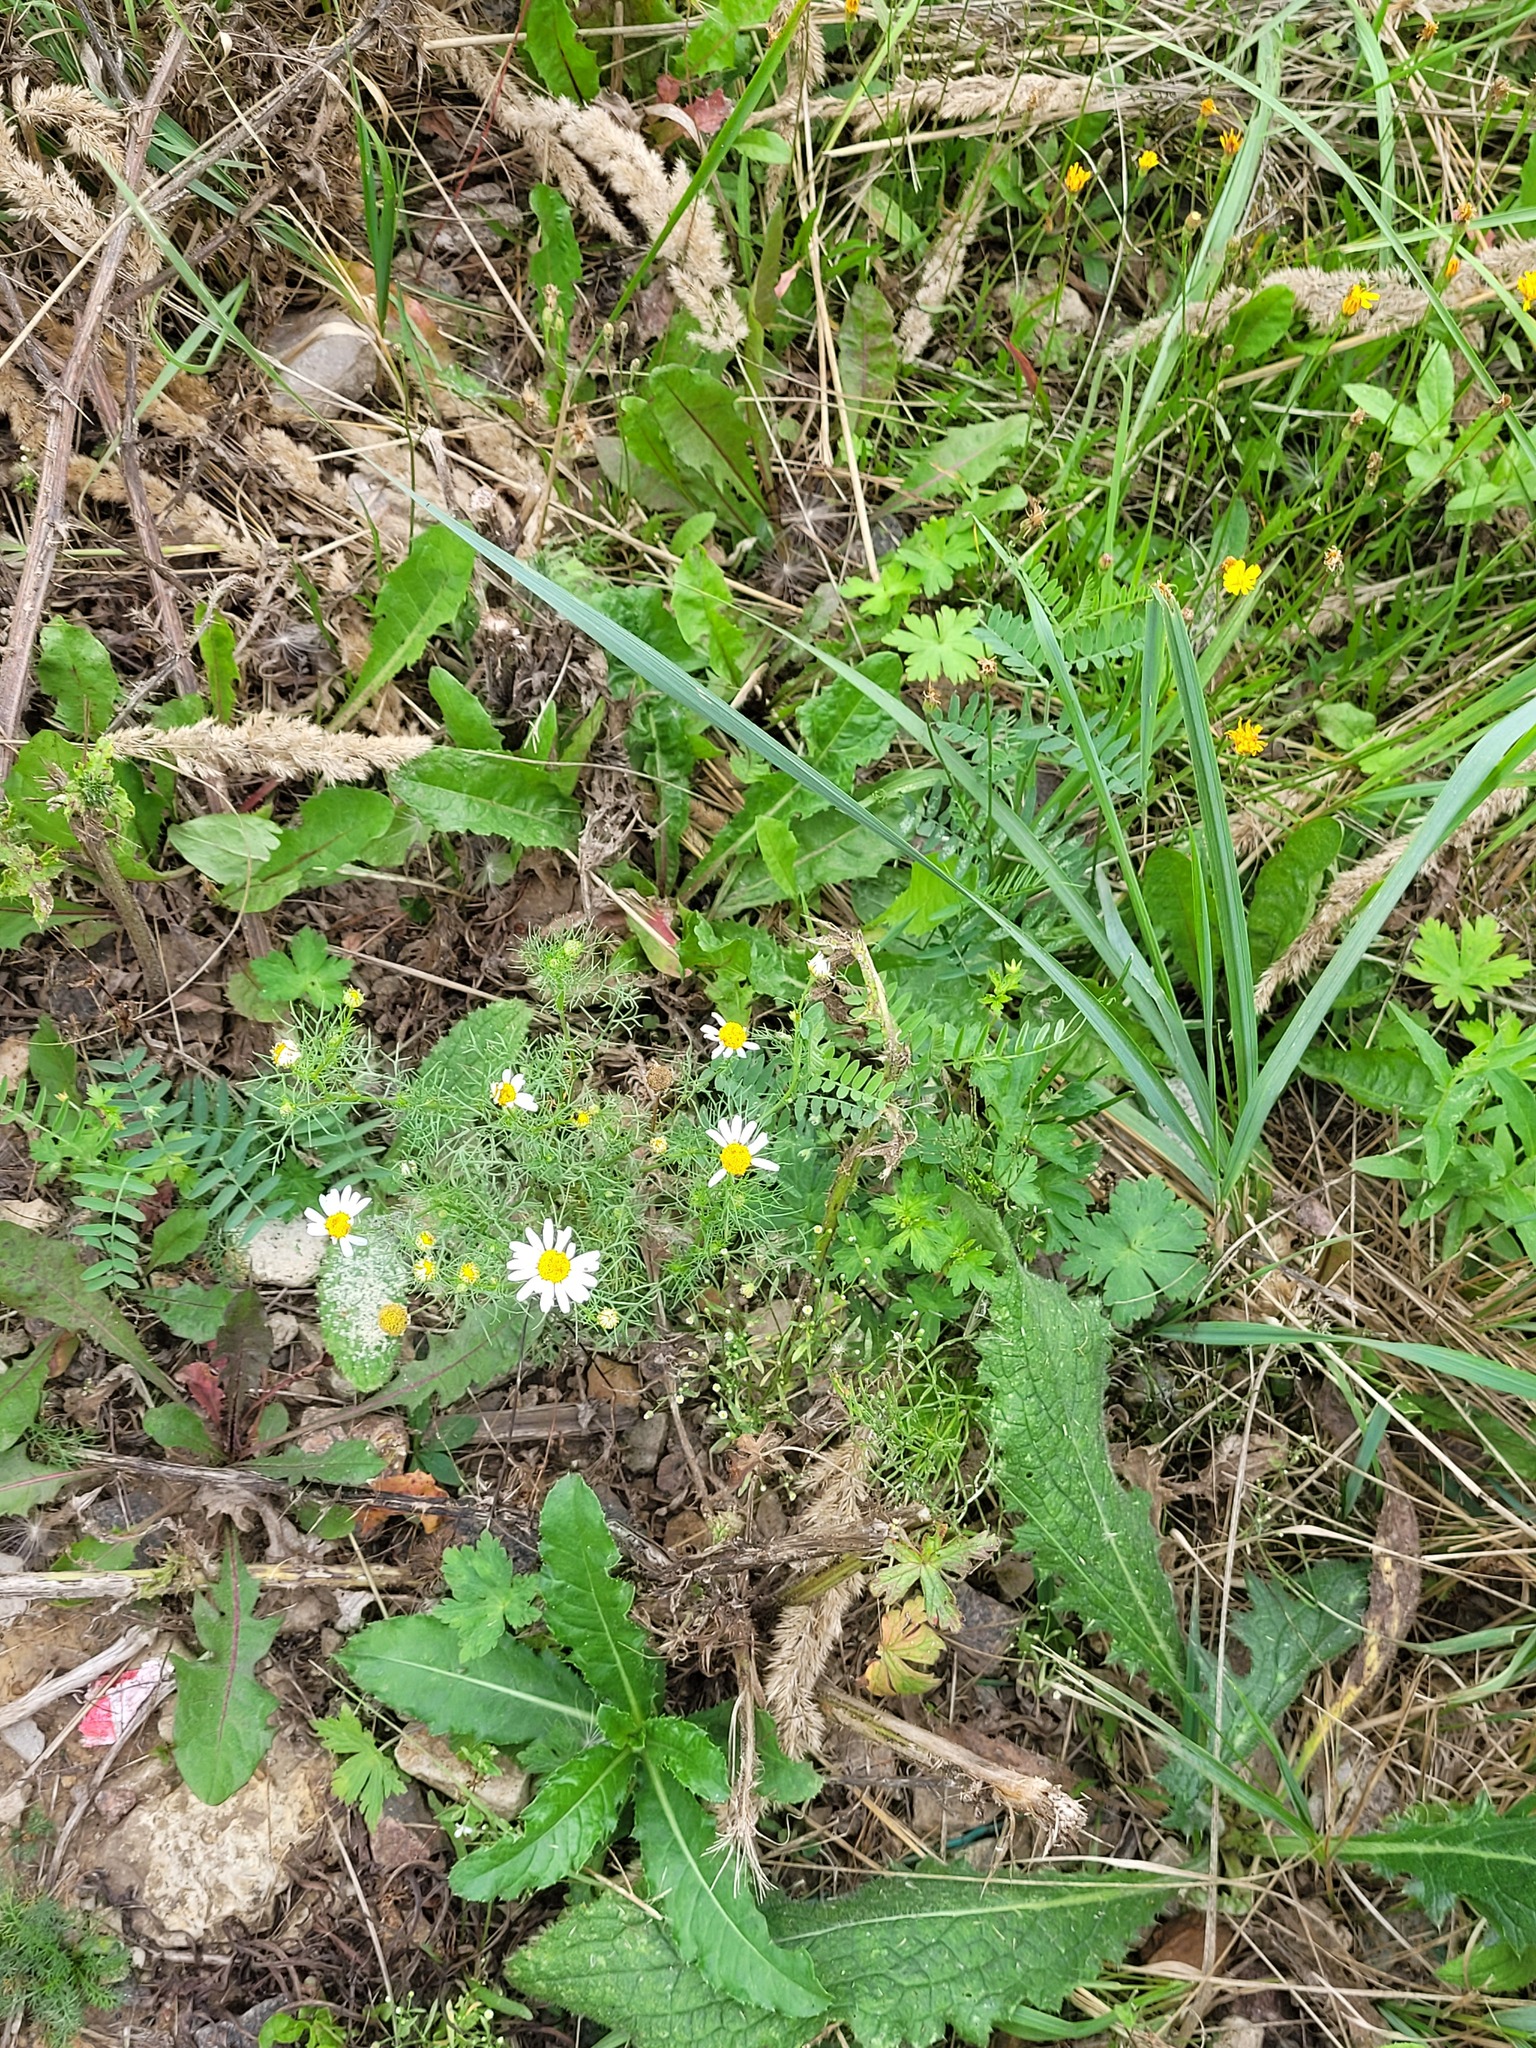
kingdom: Plantae
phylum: Tracheophyta
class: Magnoliopsida
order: Asterales
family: Asteraceae
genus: Tripleurospermum
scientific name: Tripleurospermum inodorum
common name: Scentless mayweed
